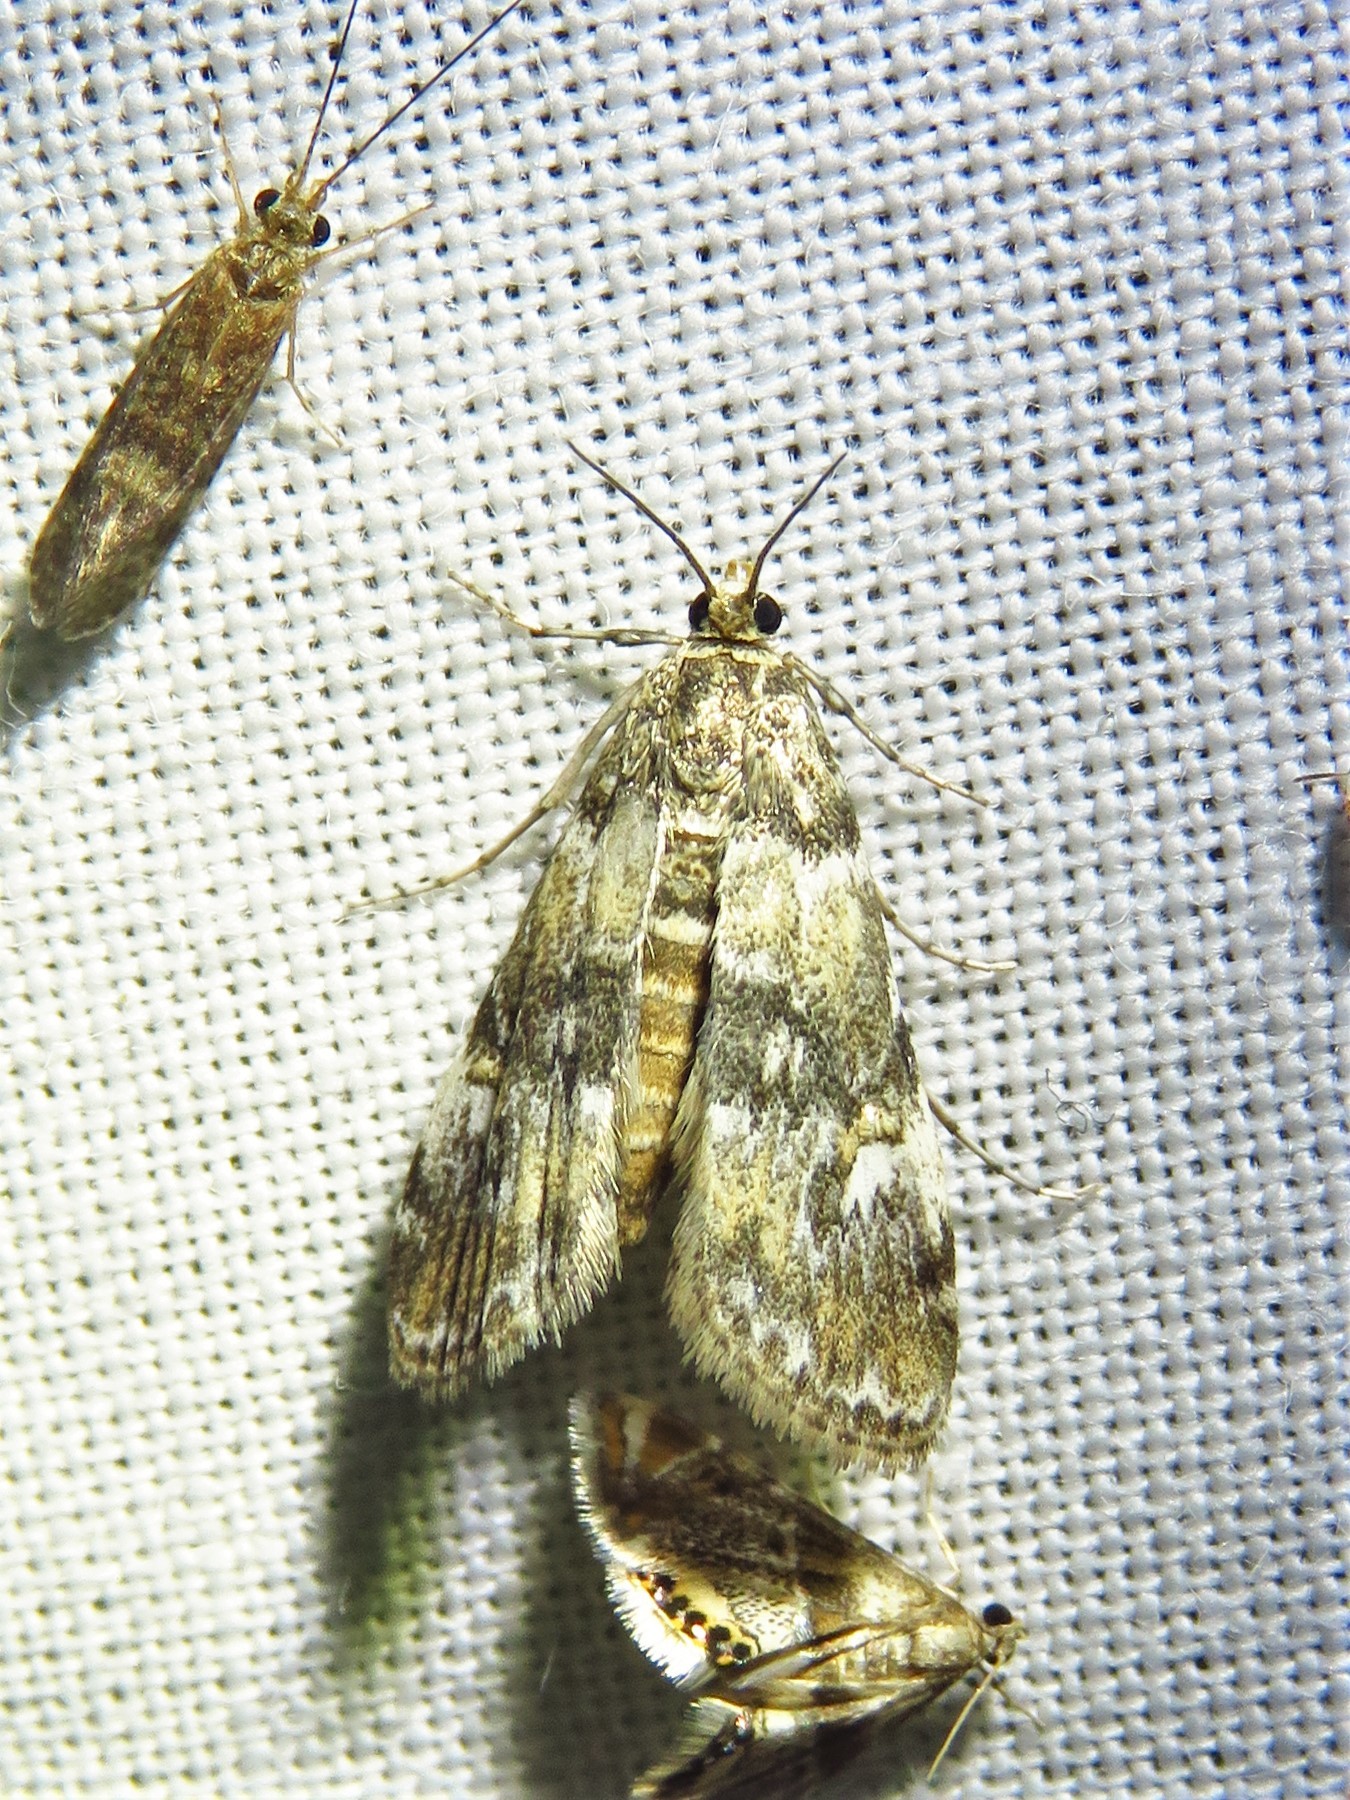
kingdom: Animalia
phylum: Arthropoda
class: Insecta
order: Lepidoptera
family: Crambidae
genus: Elophila
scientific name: Elophila obliteralis
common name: Waterlily leafcutter moth
